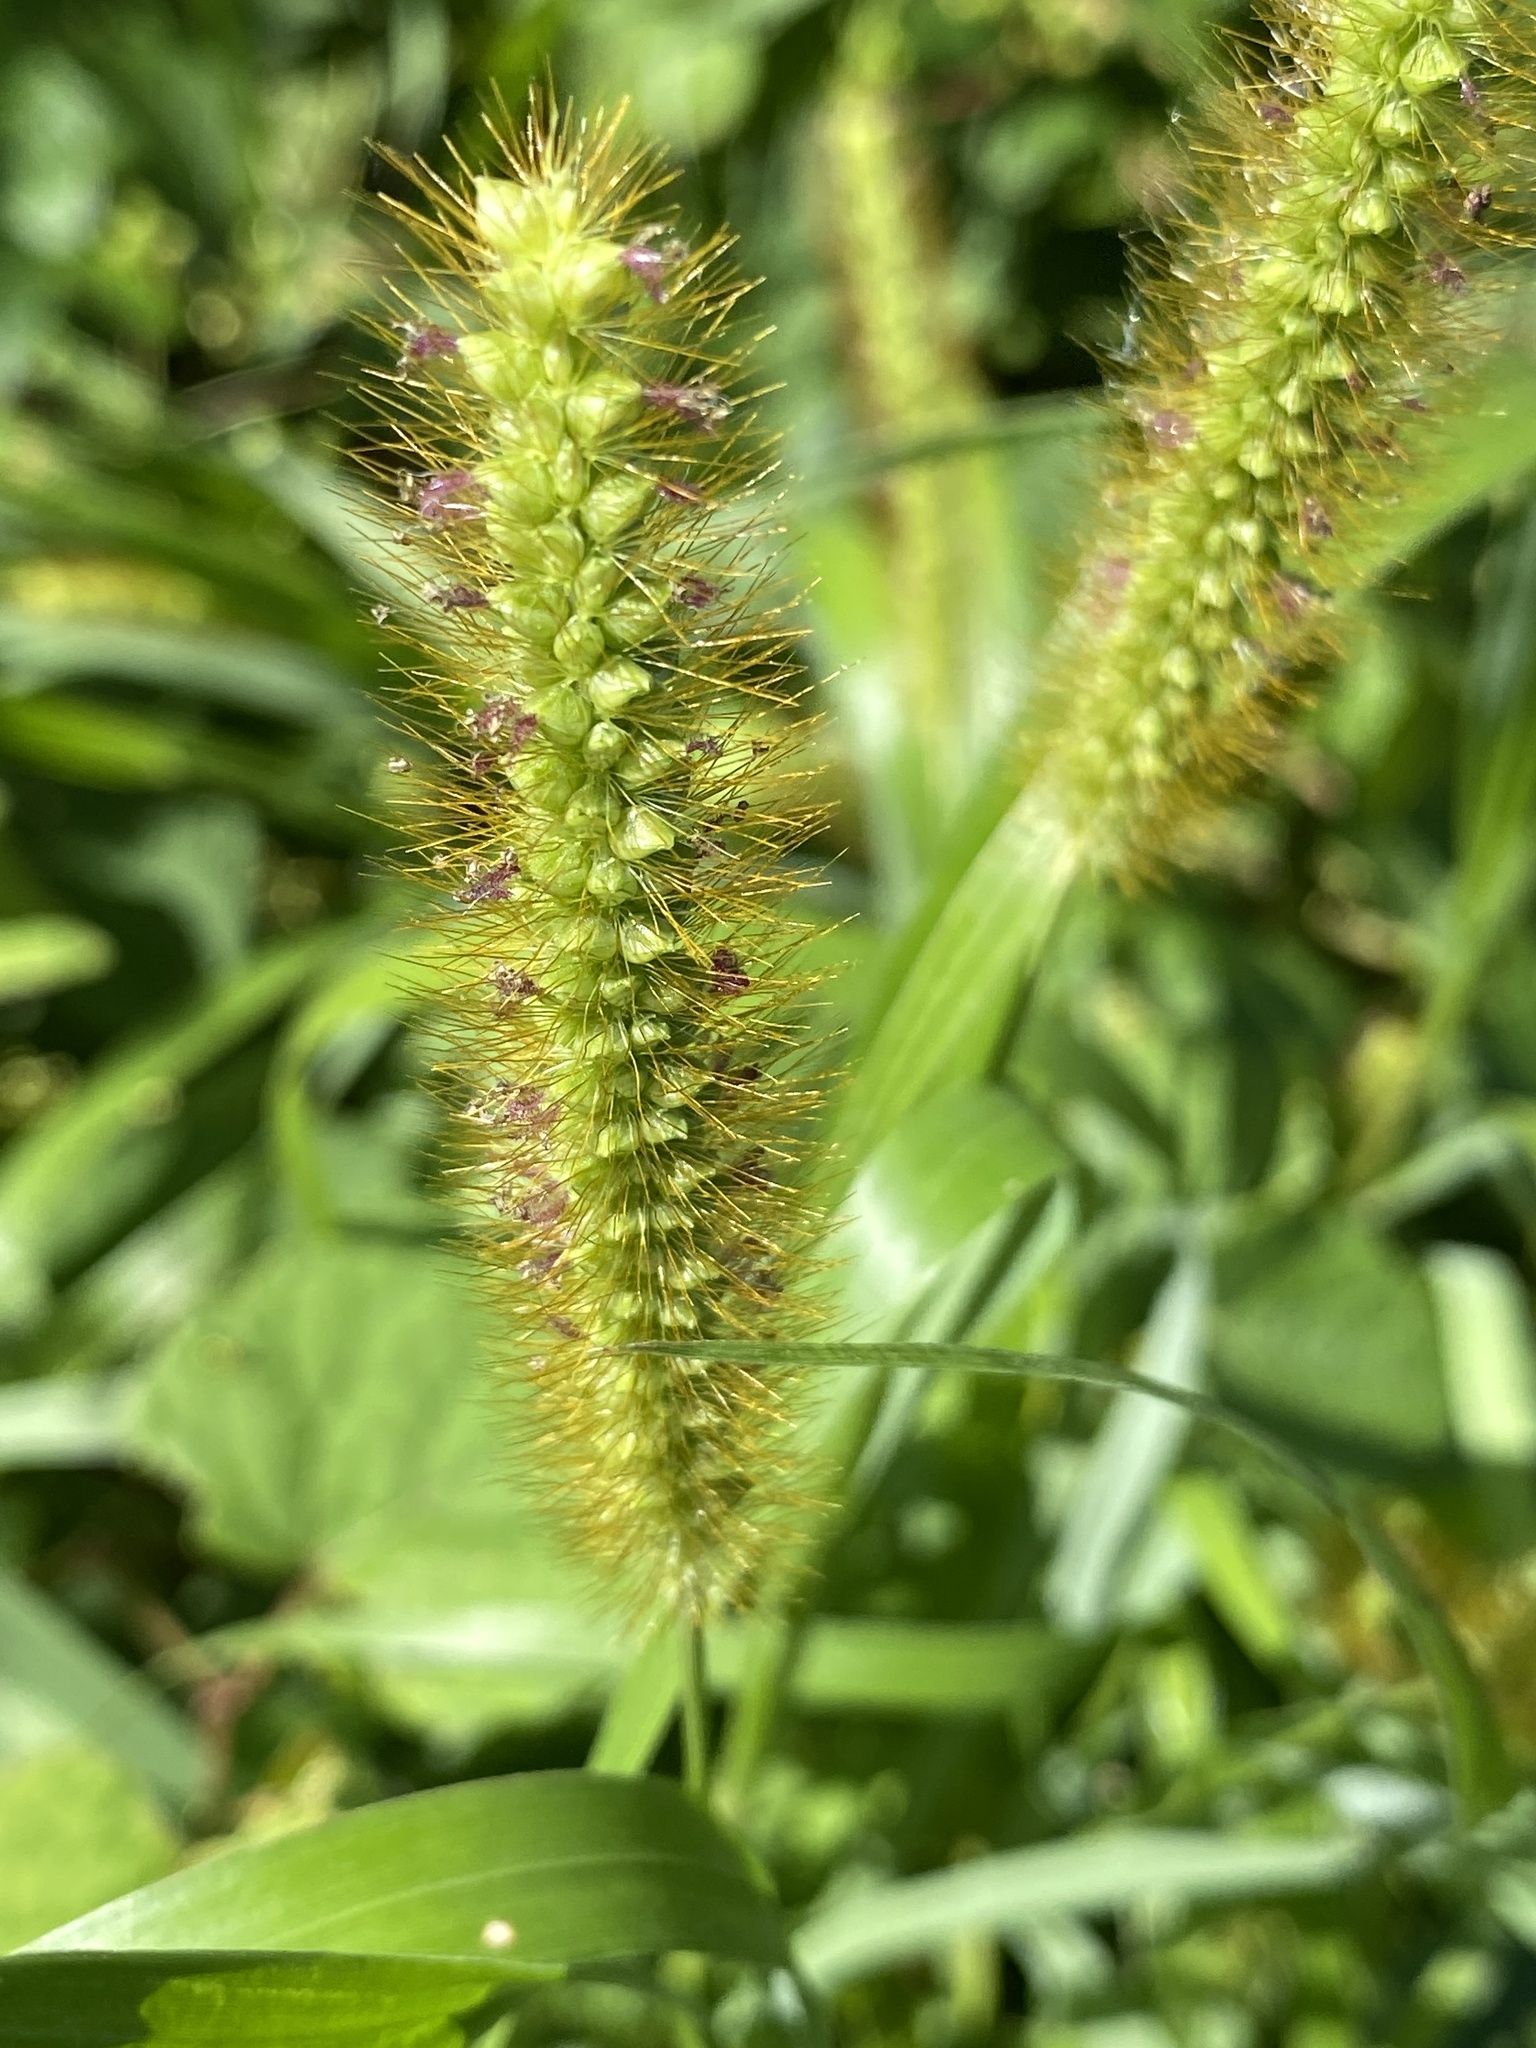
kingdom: Plantae
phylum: Tracheophyta
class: Liliopsida
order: Poales
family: Poaceae
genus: Setaria
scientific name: Setaria pumila
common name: Yellow bristle-grass
